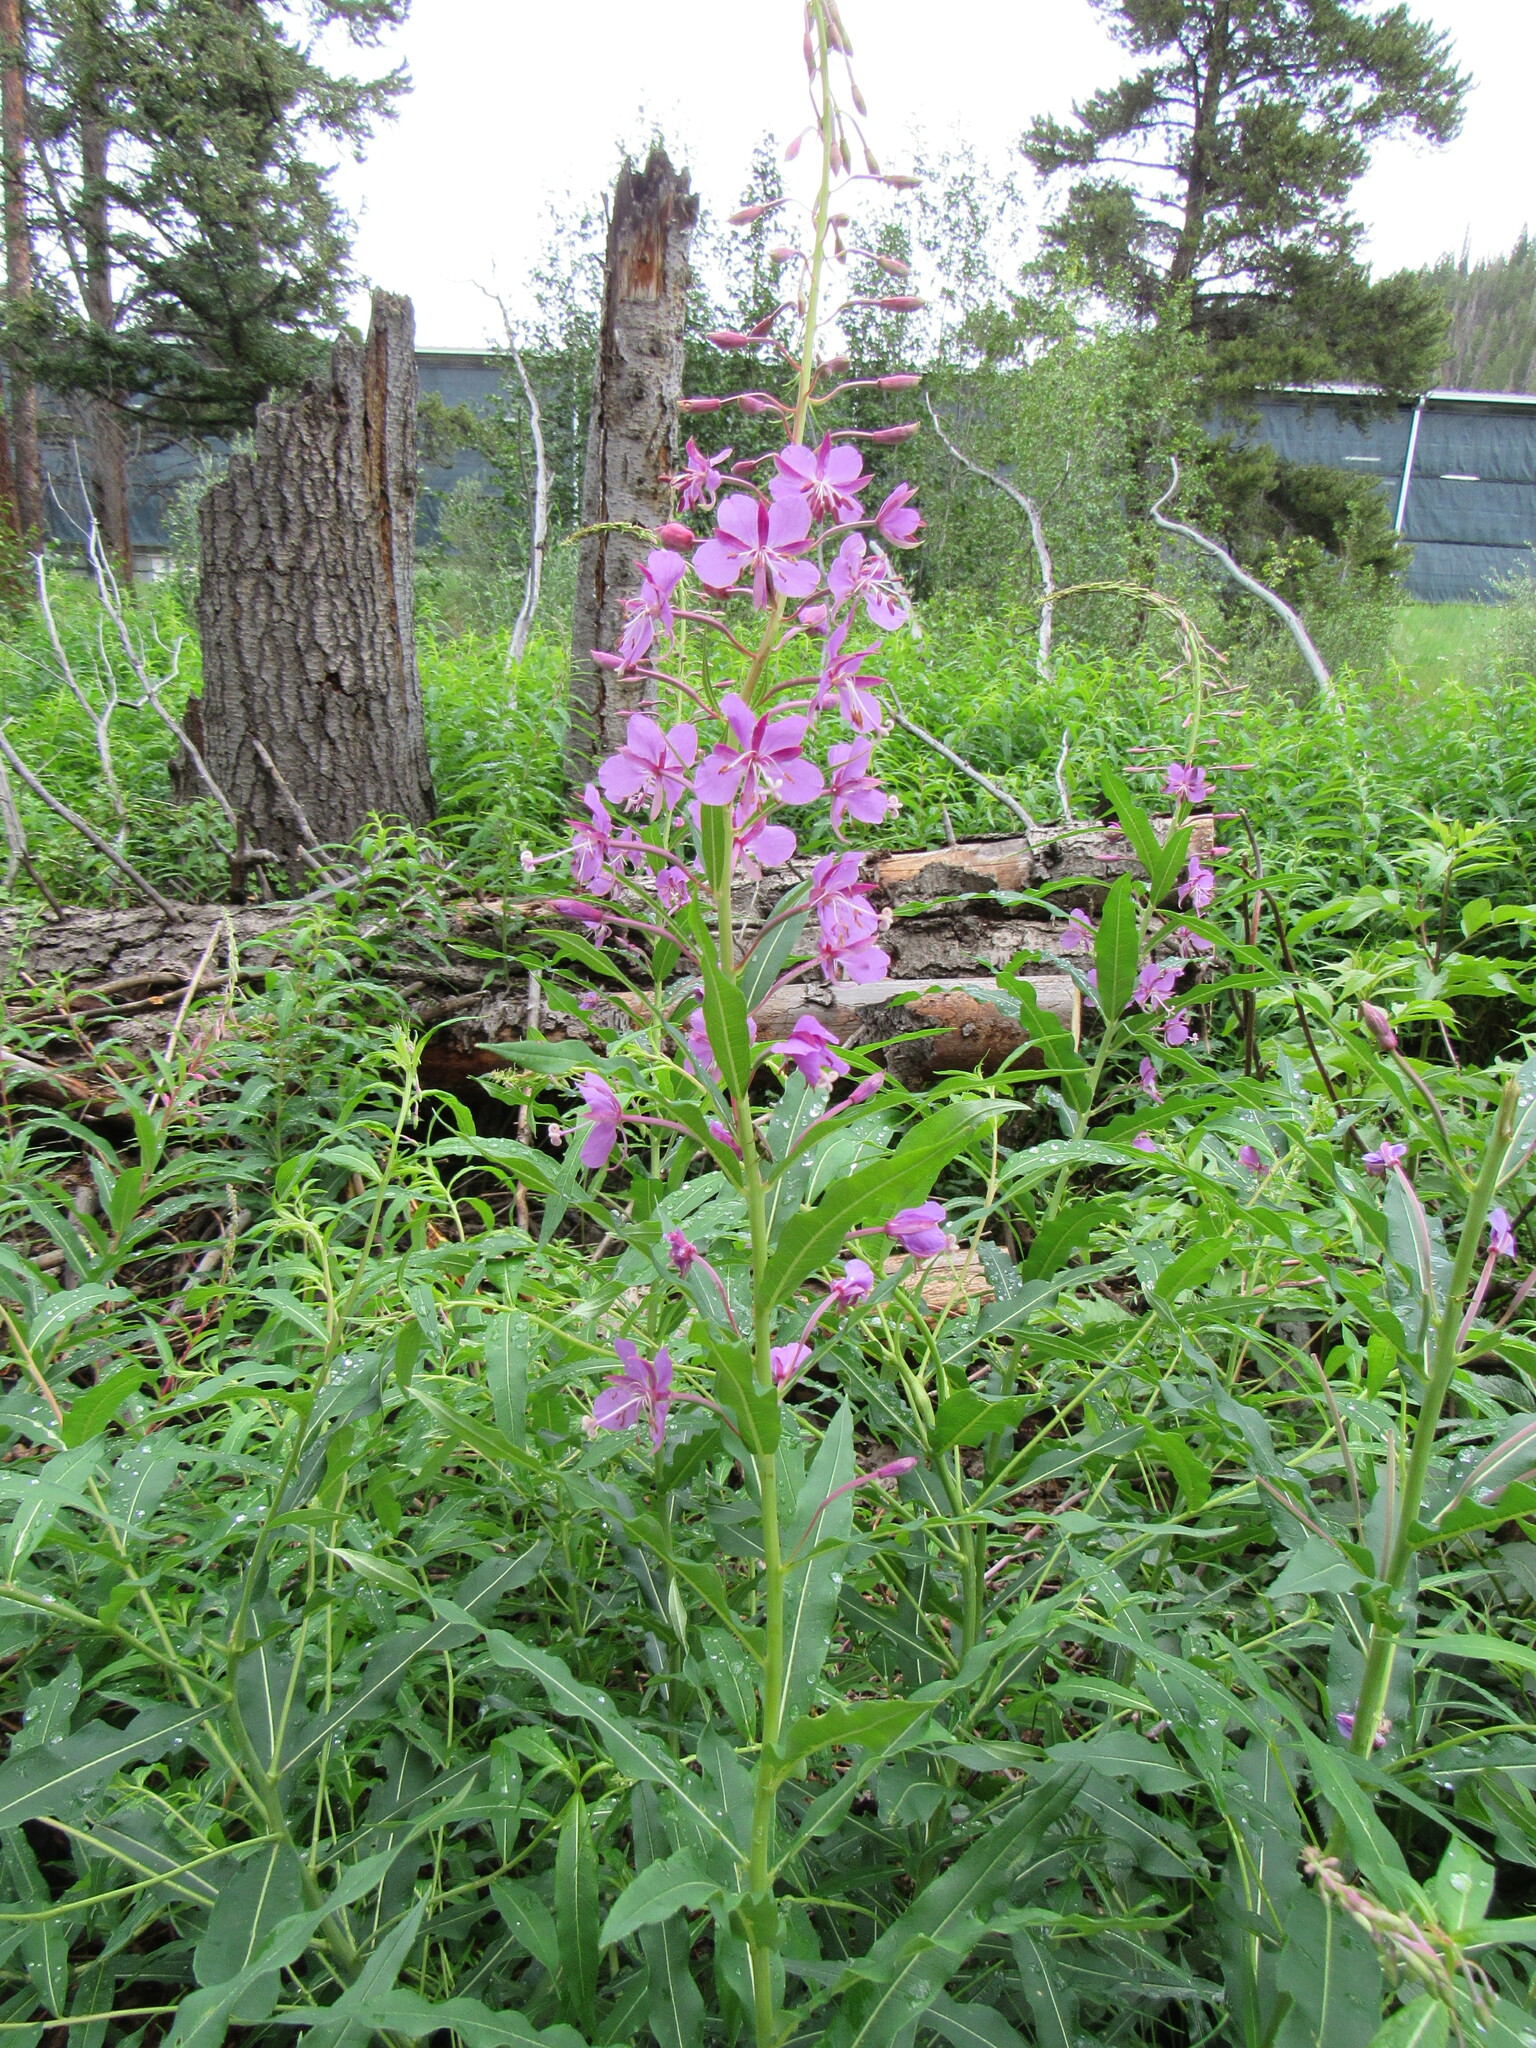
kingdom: Plantae
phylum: Tracheophyta
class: Magnoliopsida
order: Myrtales
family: Onagraceae
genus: Chamaenerion
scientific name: Chamaenerion angustifolium
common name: Fireweed
